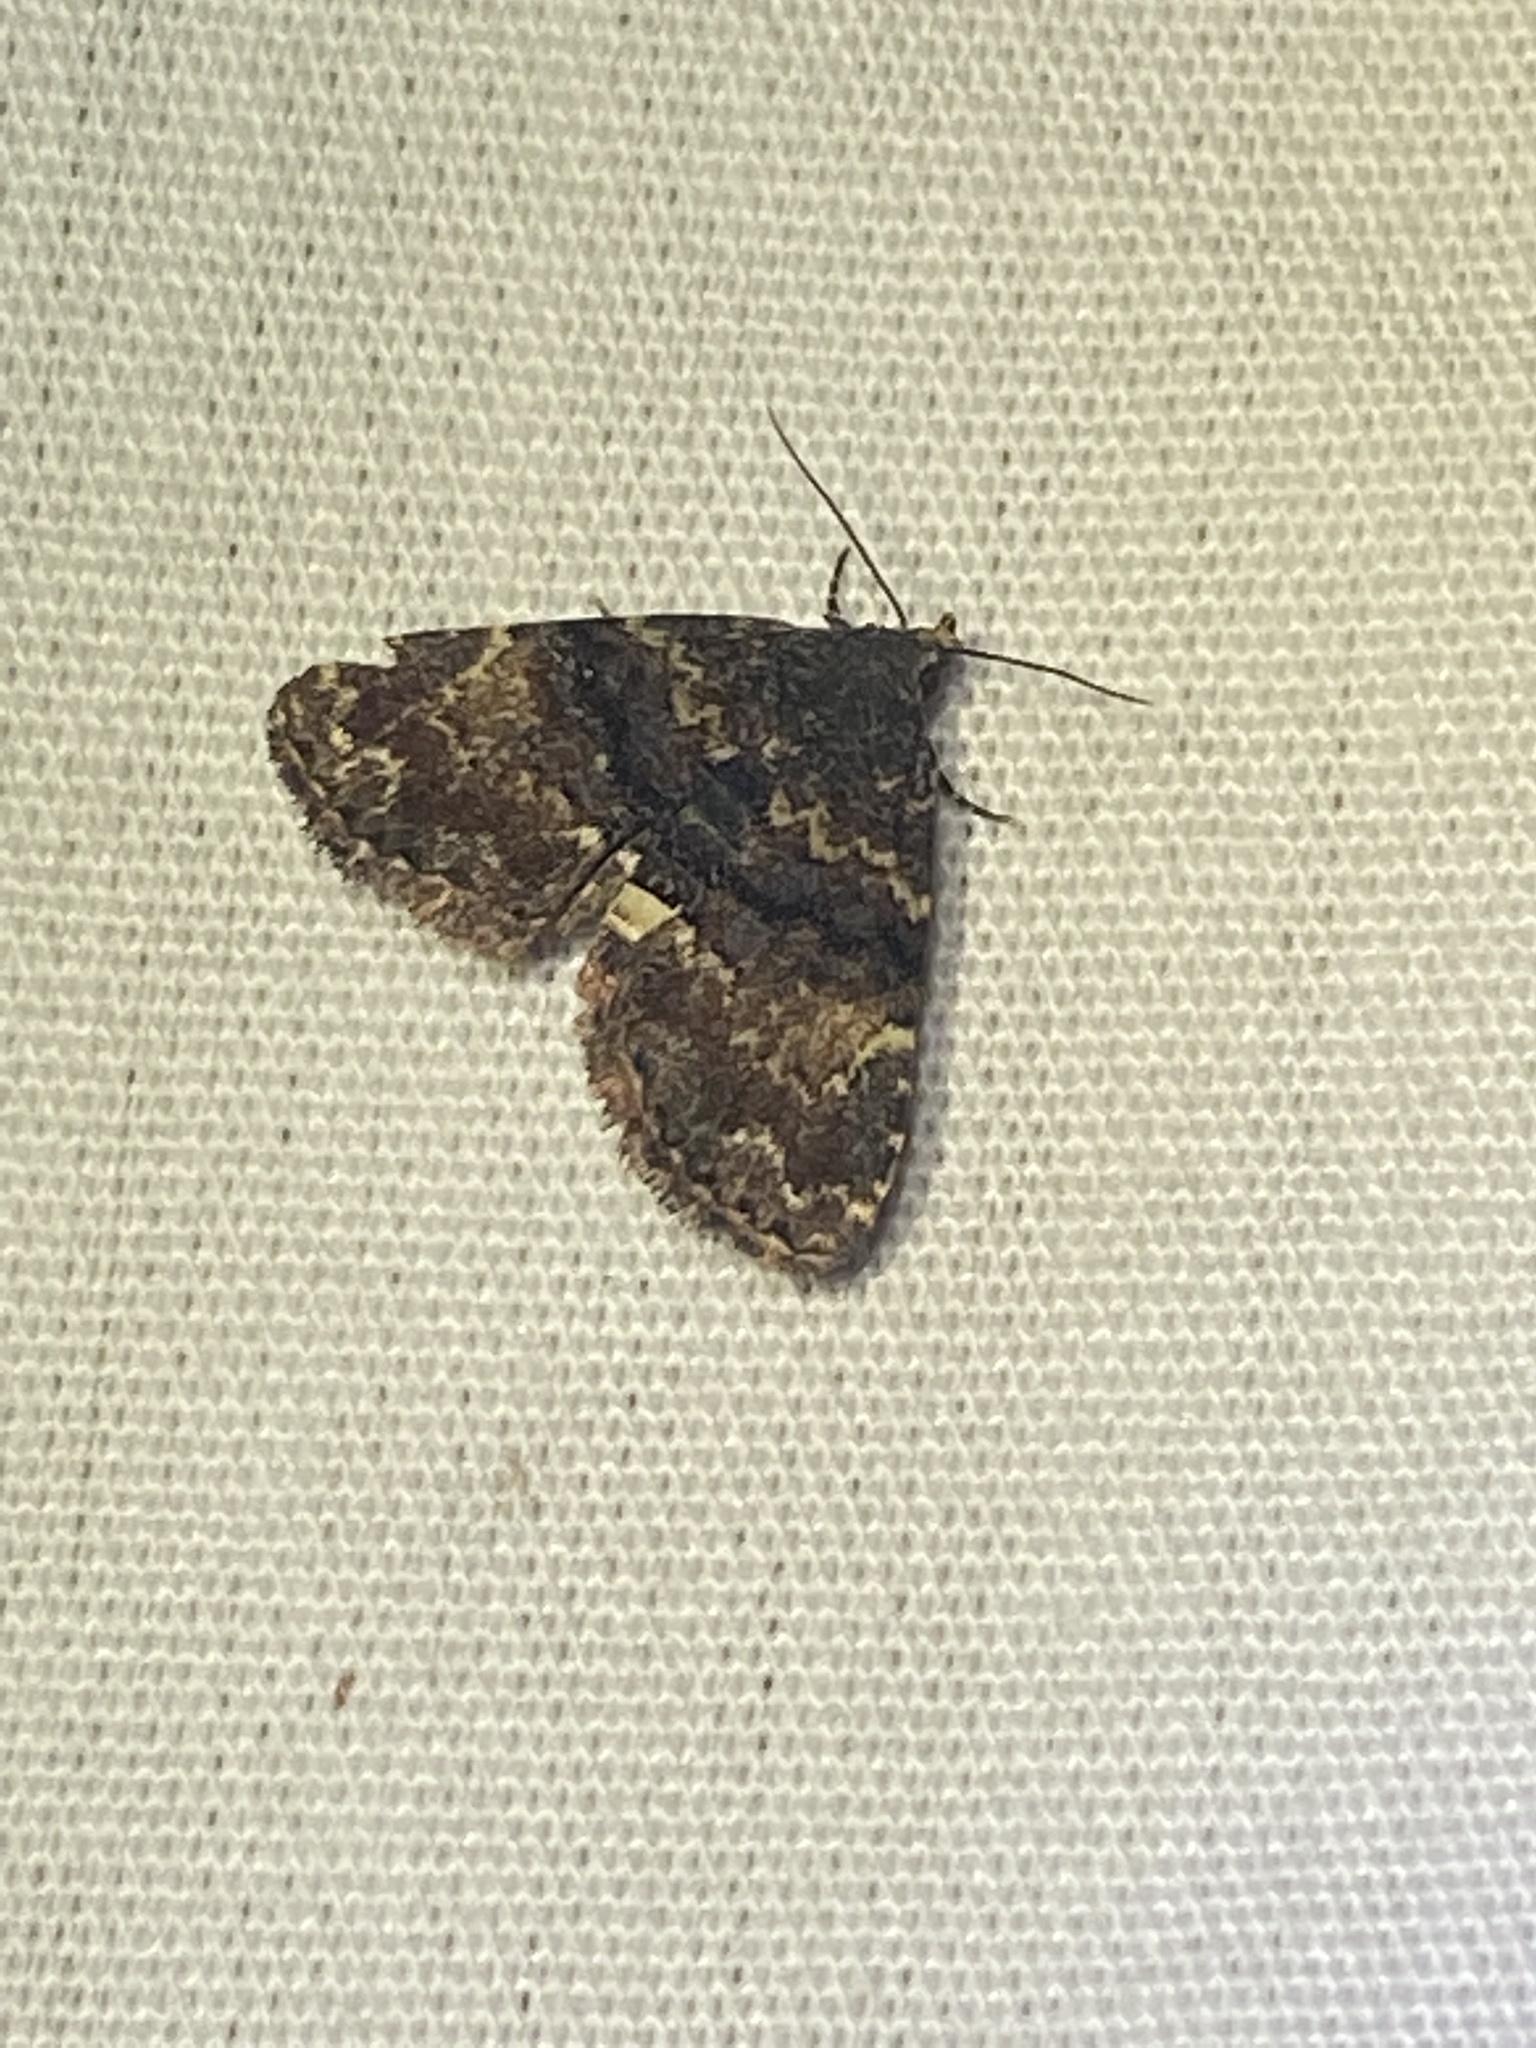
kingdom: Animalia
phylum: Arthropoda
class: Insecta
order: Lepidoptera
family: Erebidae
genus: Metalectra
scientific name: Metalectra richardsi
